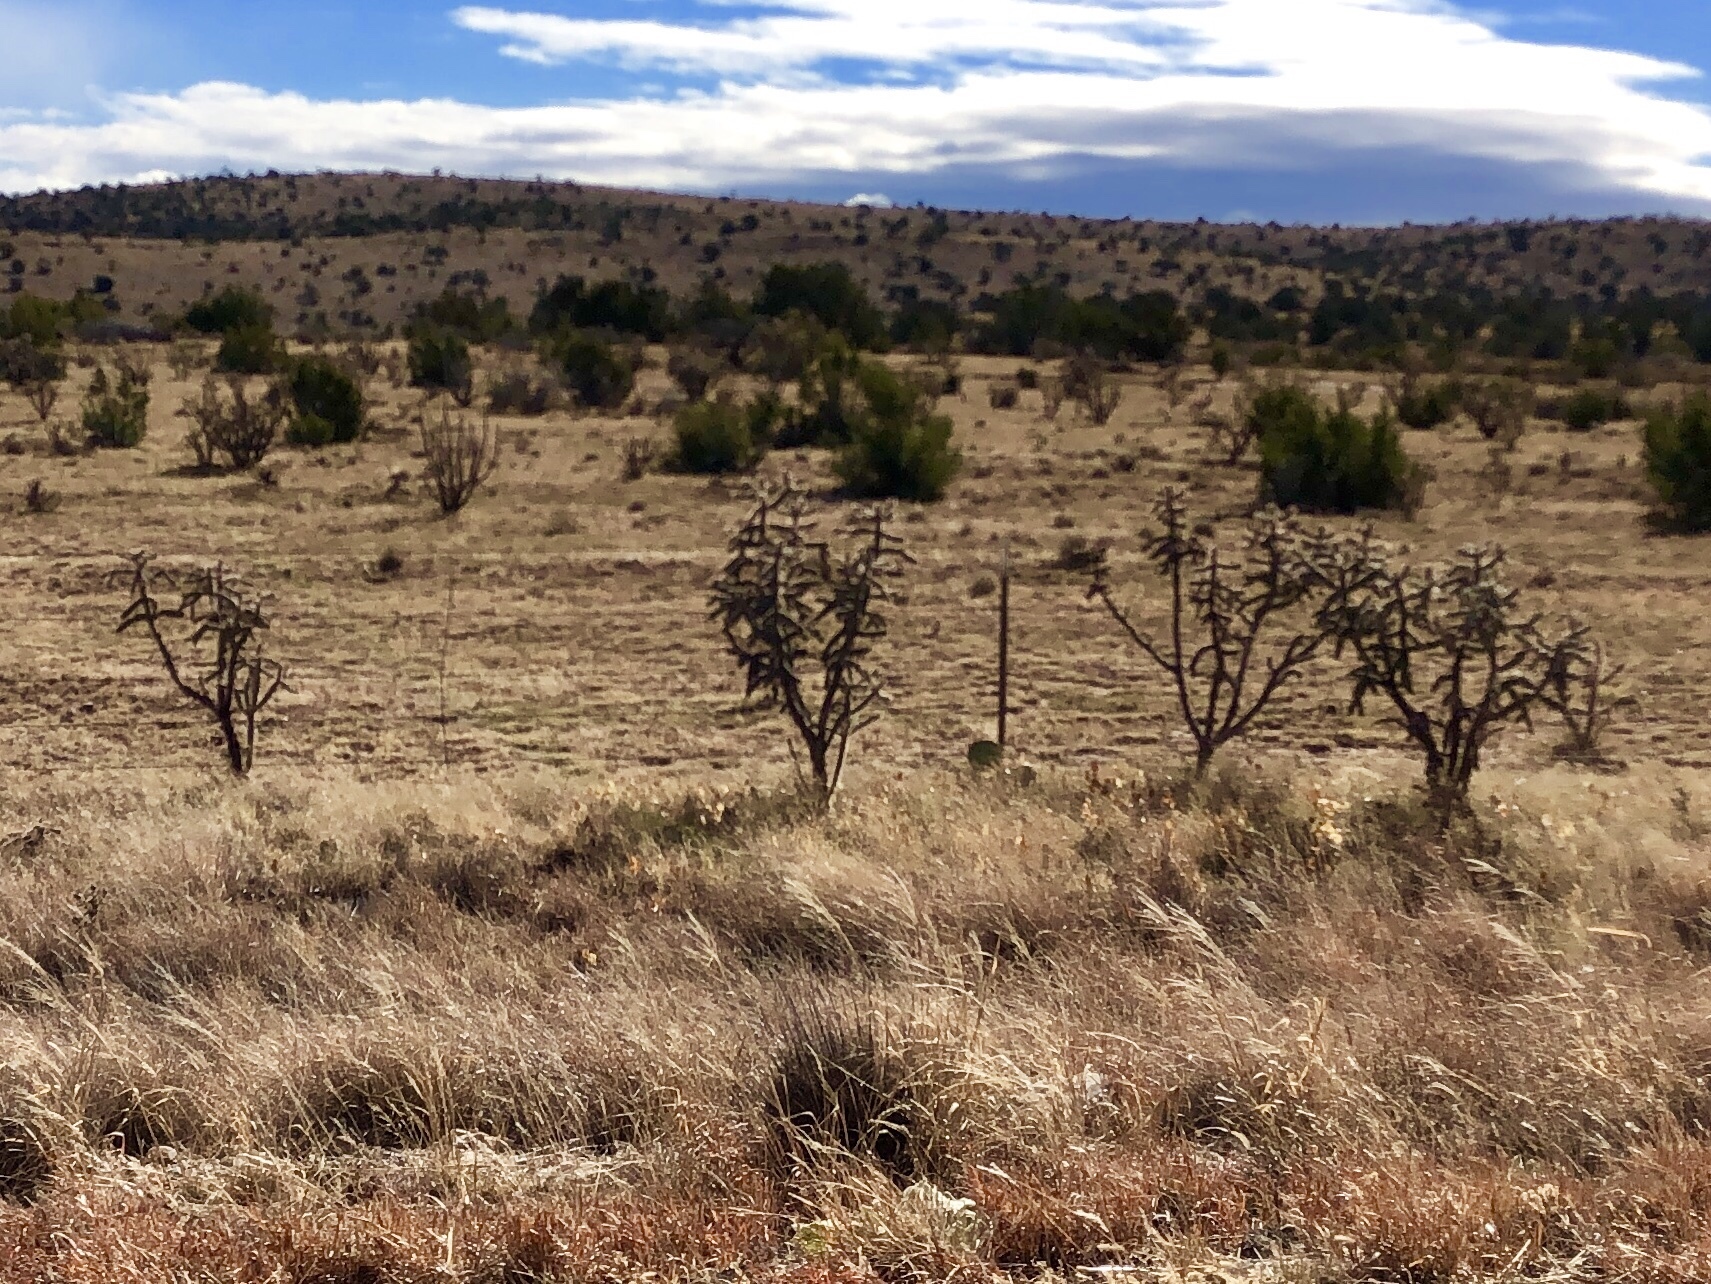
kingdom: Plantae
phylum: Tracheophyta
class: Magnoliopsida
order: Caryophyllales
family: Cactaceae
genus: Cylindropuntia
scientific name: Cylindropuntia imbricata
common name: Candelabrum cactus
